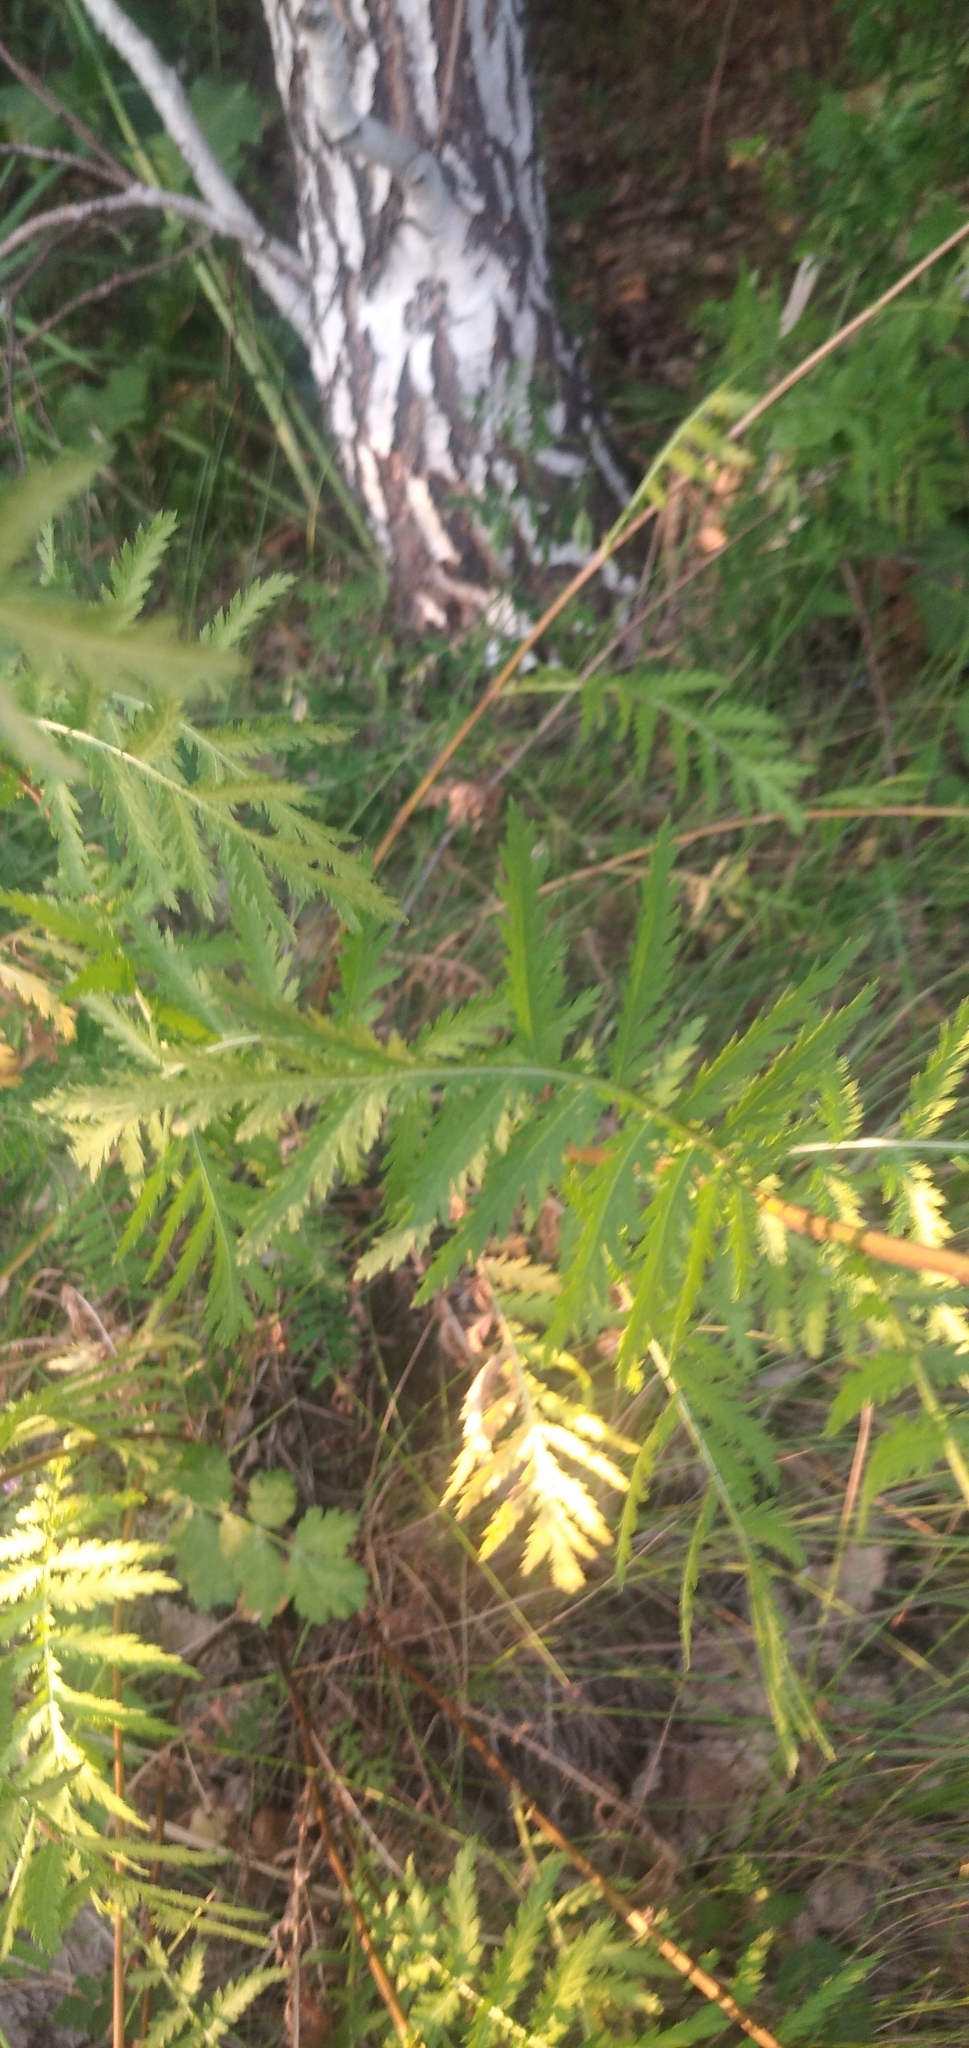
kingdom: Plantae
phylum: Tracheophyta
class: Magnoliopsida
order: Asterales
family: Asteraceae
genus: Tanacetum
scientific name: Tanacetum vulgare
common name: Common tansy
